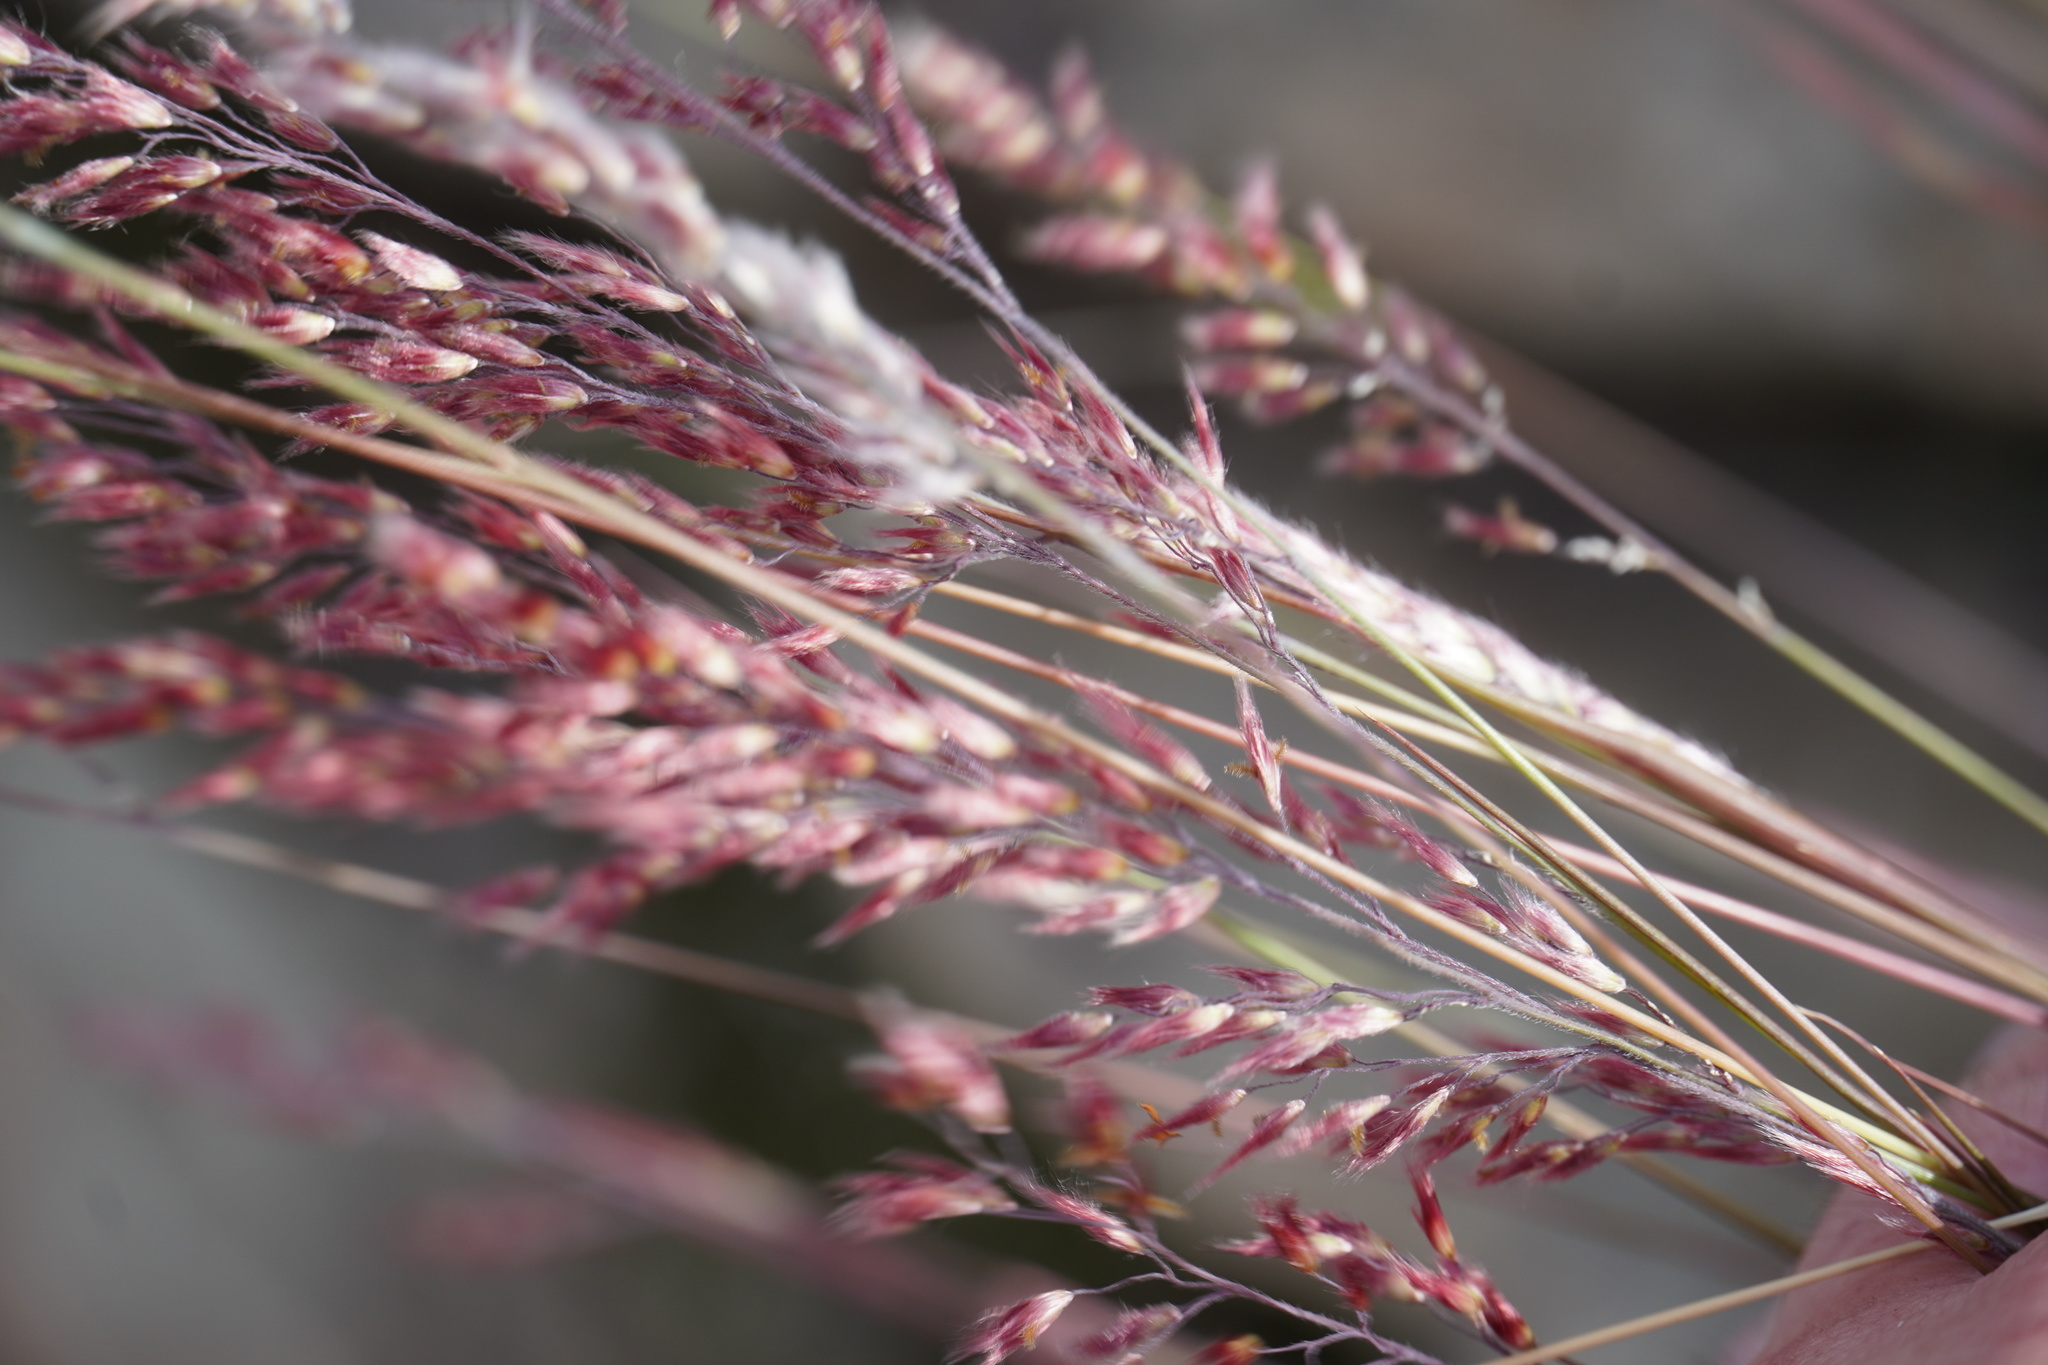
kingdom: Plantae
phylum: Tracheophyta
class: Liliopsida
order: Poales
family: Poaceae
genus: Melinis
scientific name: Melinis repens
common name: Rose natal grass
